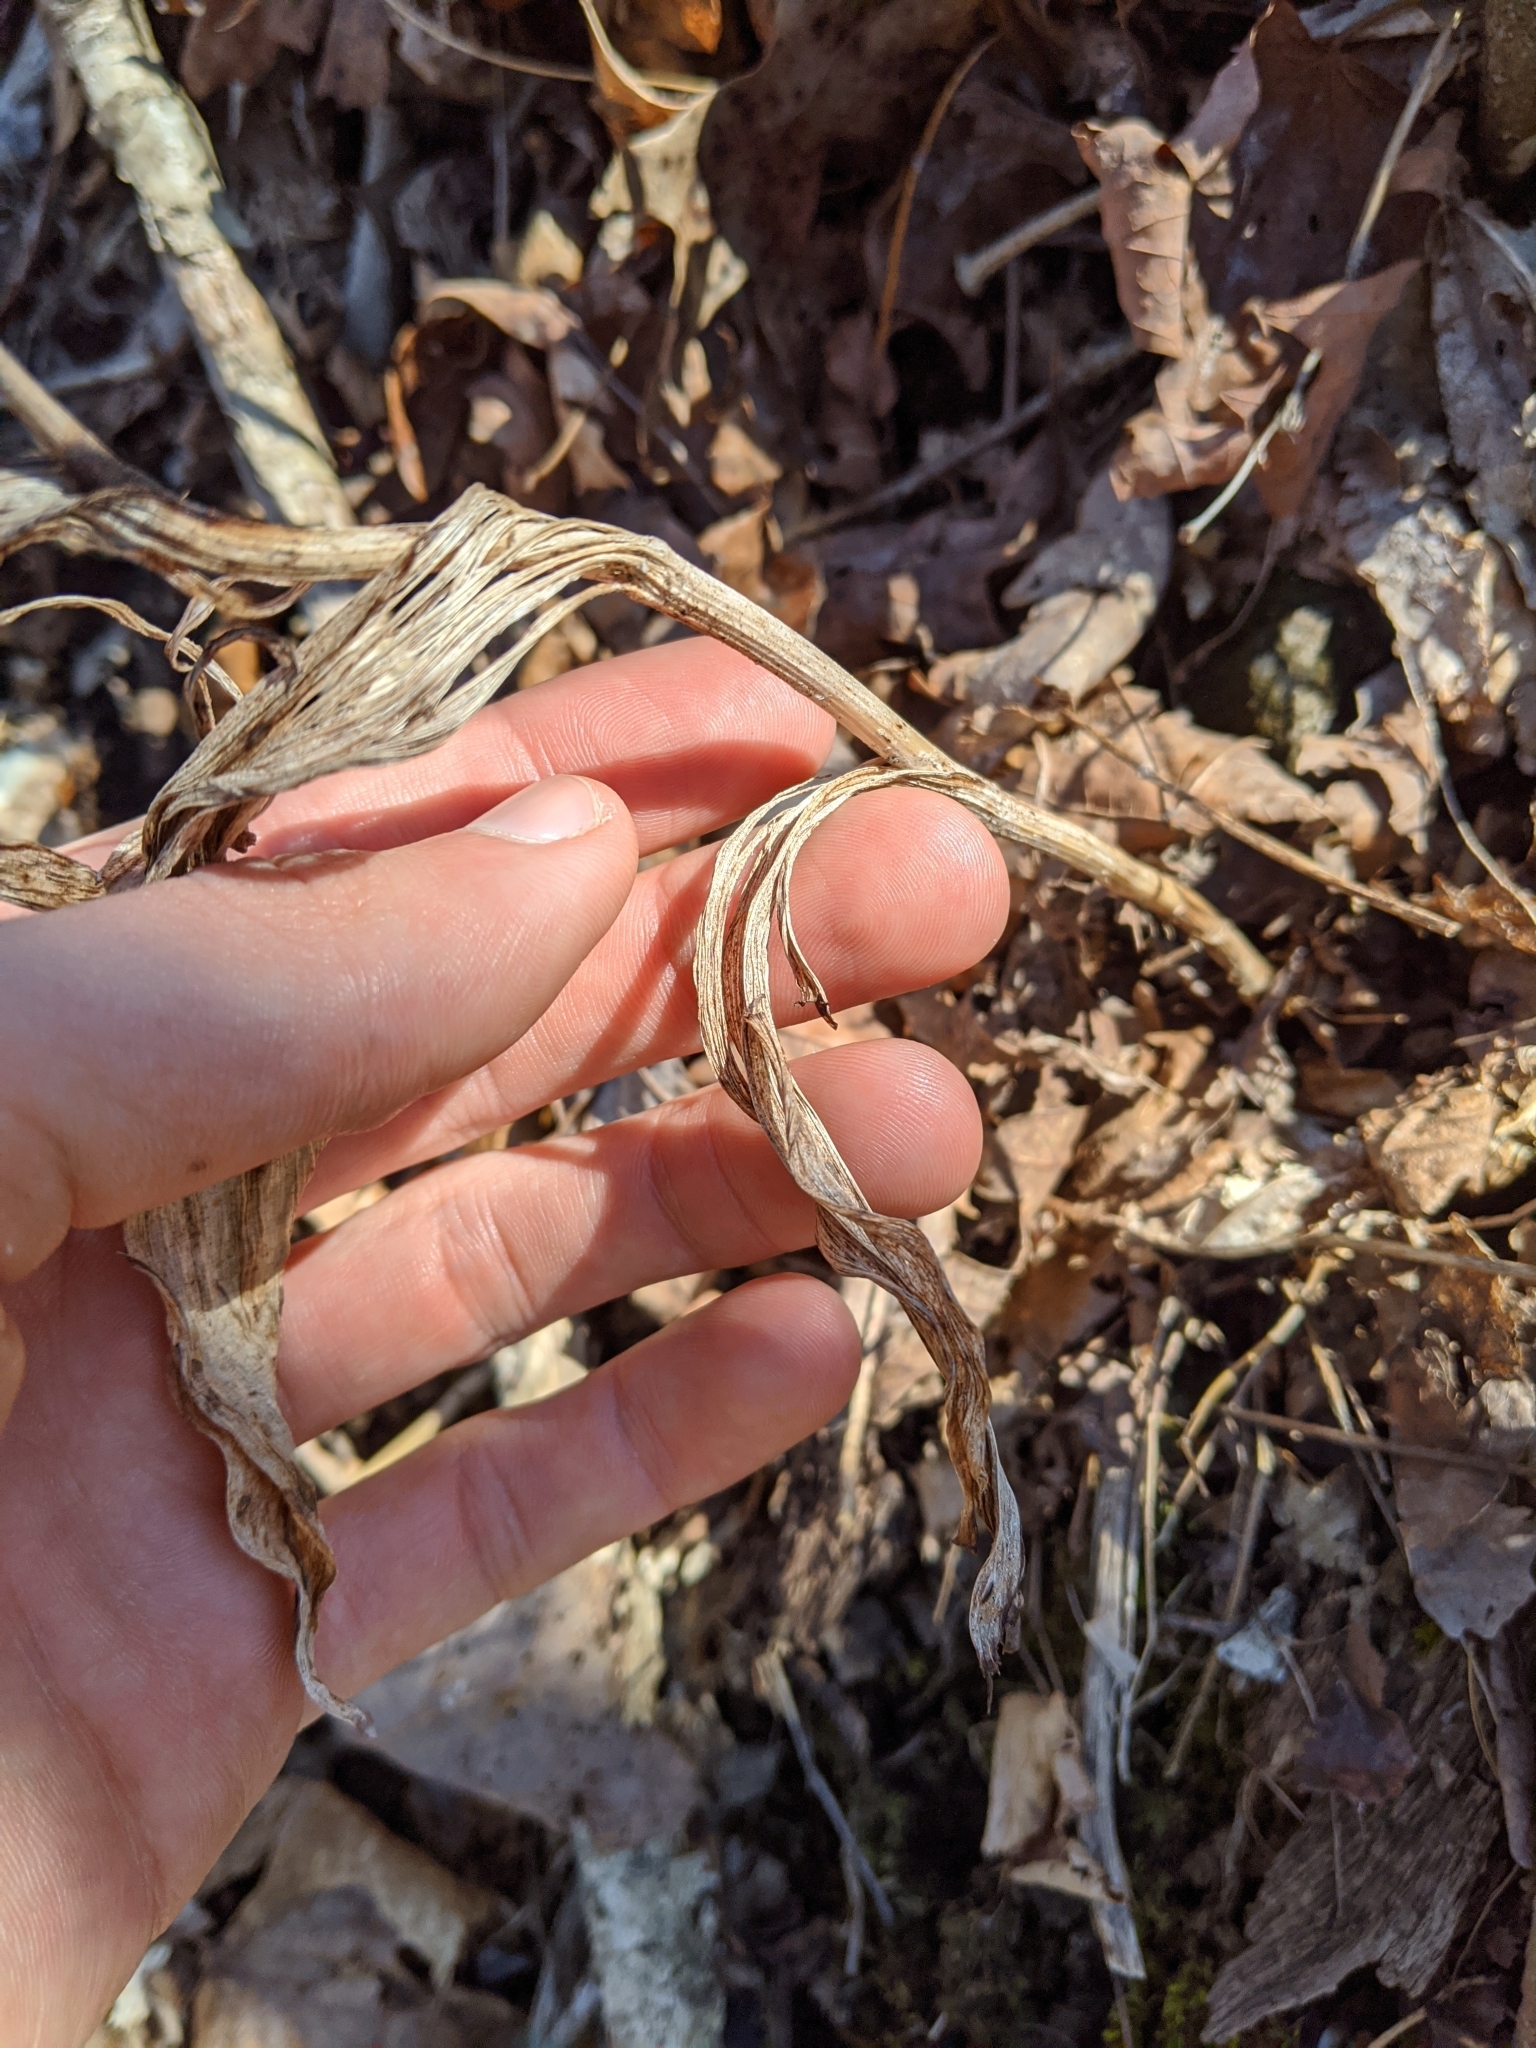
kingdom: Plantae
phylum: Tracheophyta
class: Liliopsida
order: Asparagales
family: Orchidaceae
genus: Cypripedium
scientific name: Cypripedium parviflorum
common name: American yellow lady's-slipper
